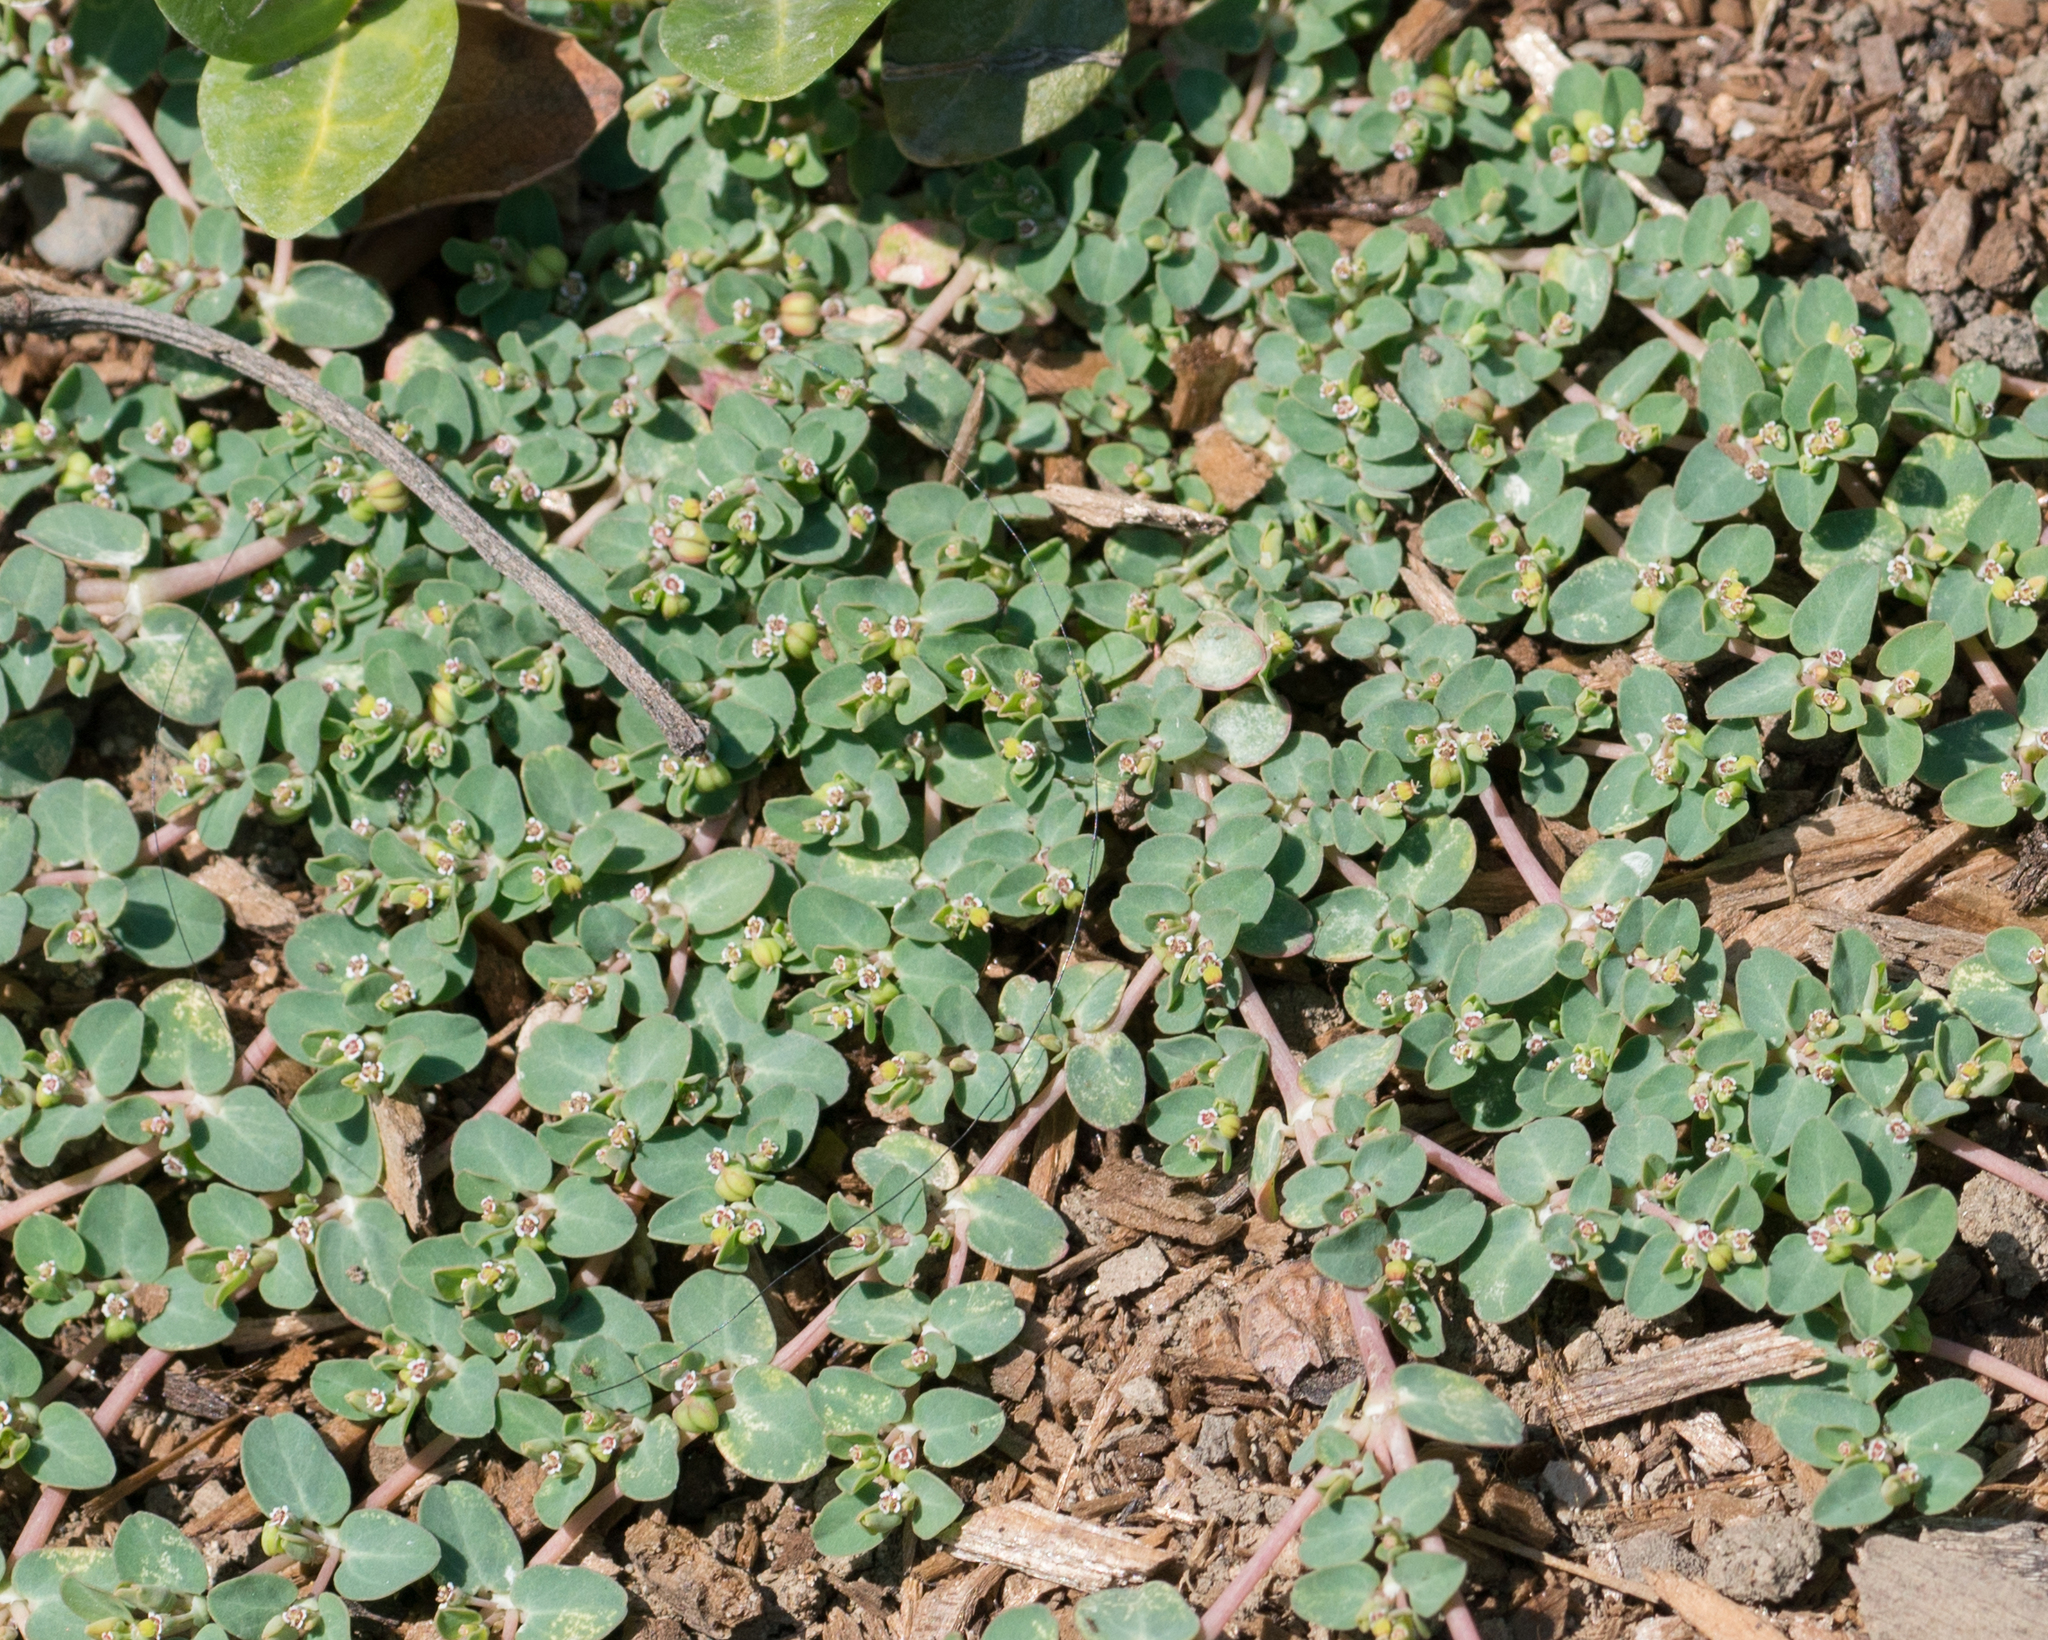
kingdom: Plantae
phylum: Tracheophyta
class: Magnoliopsida
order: Malpighiales
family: Euphorbiaceae
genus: Euphorbia
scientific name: Euphorbia serpens
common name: Matted sandmat
